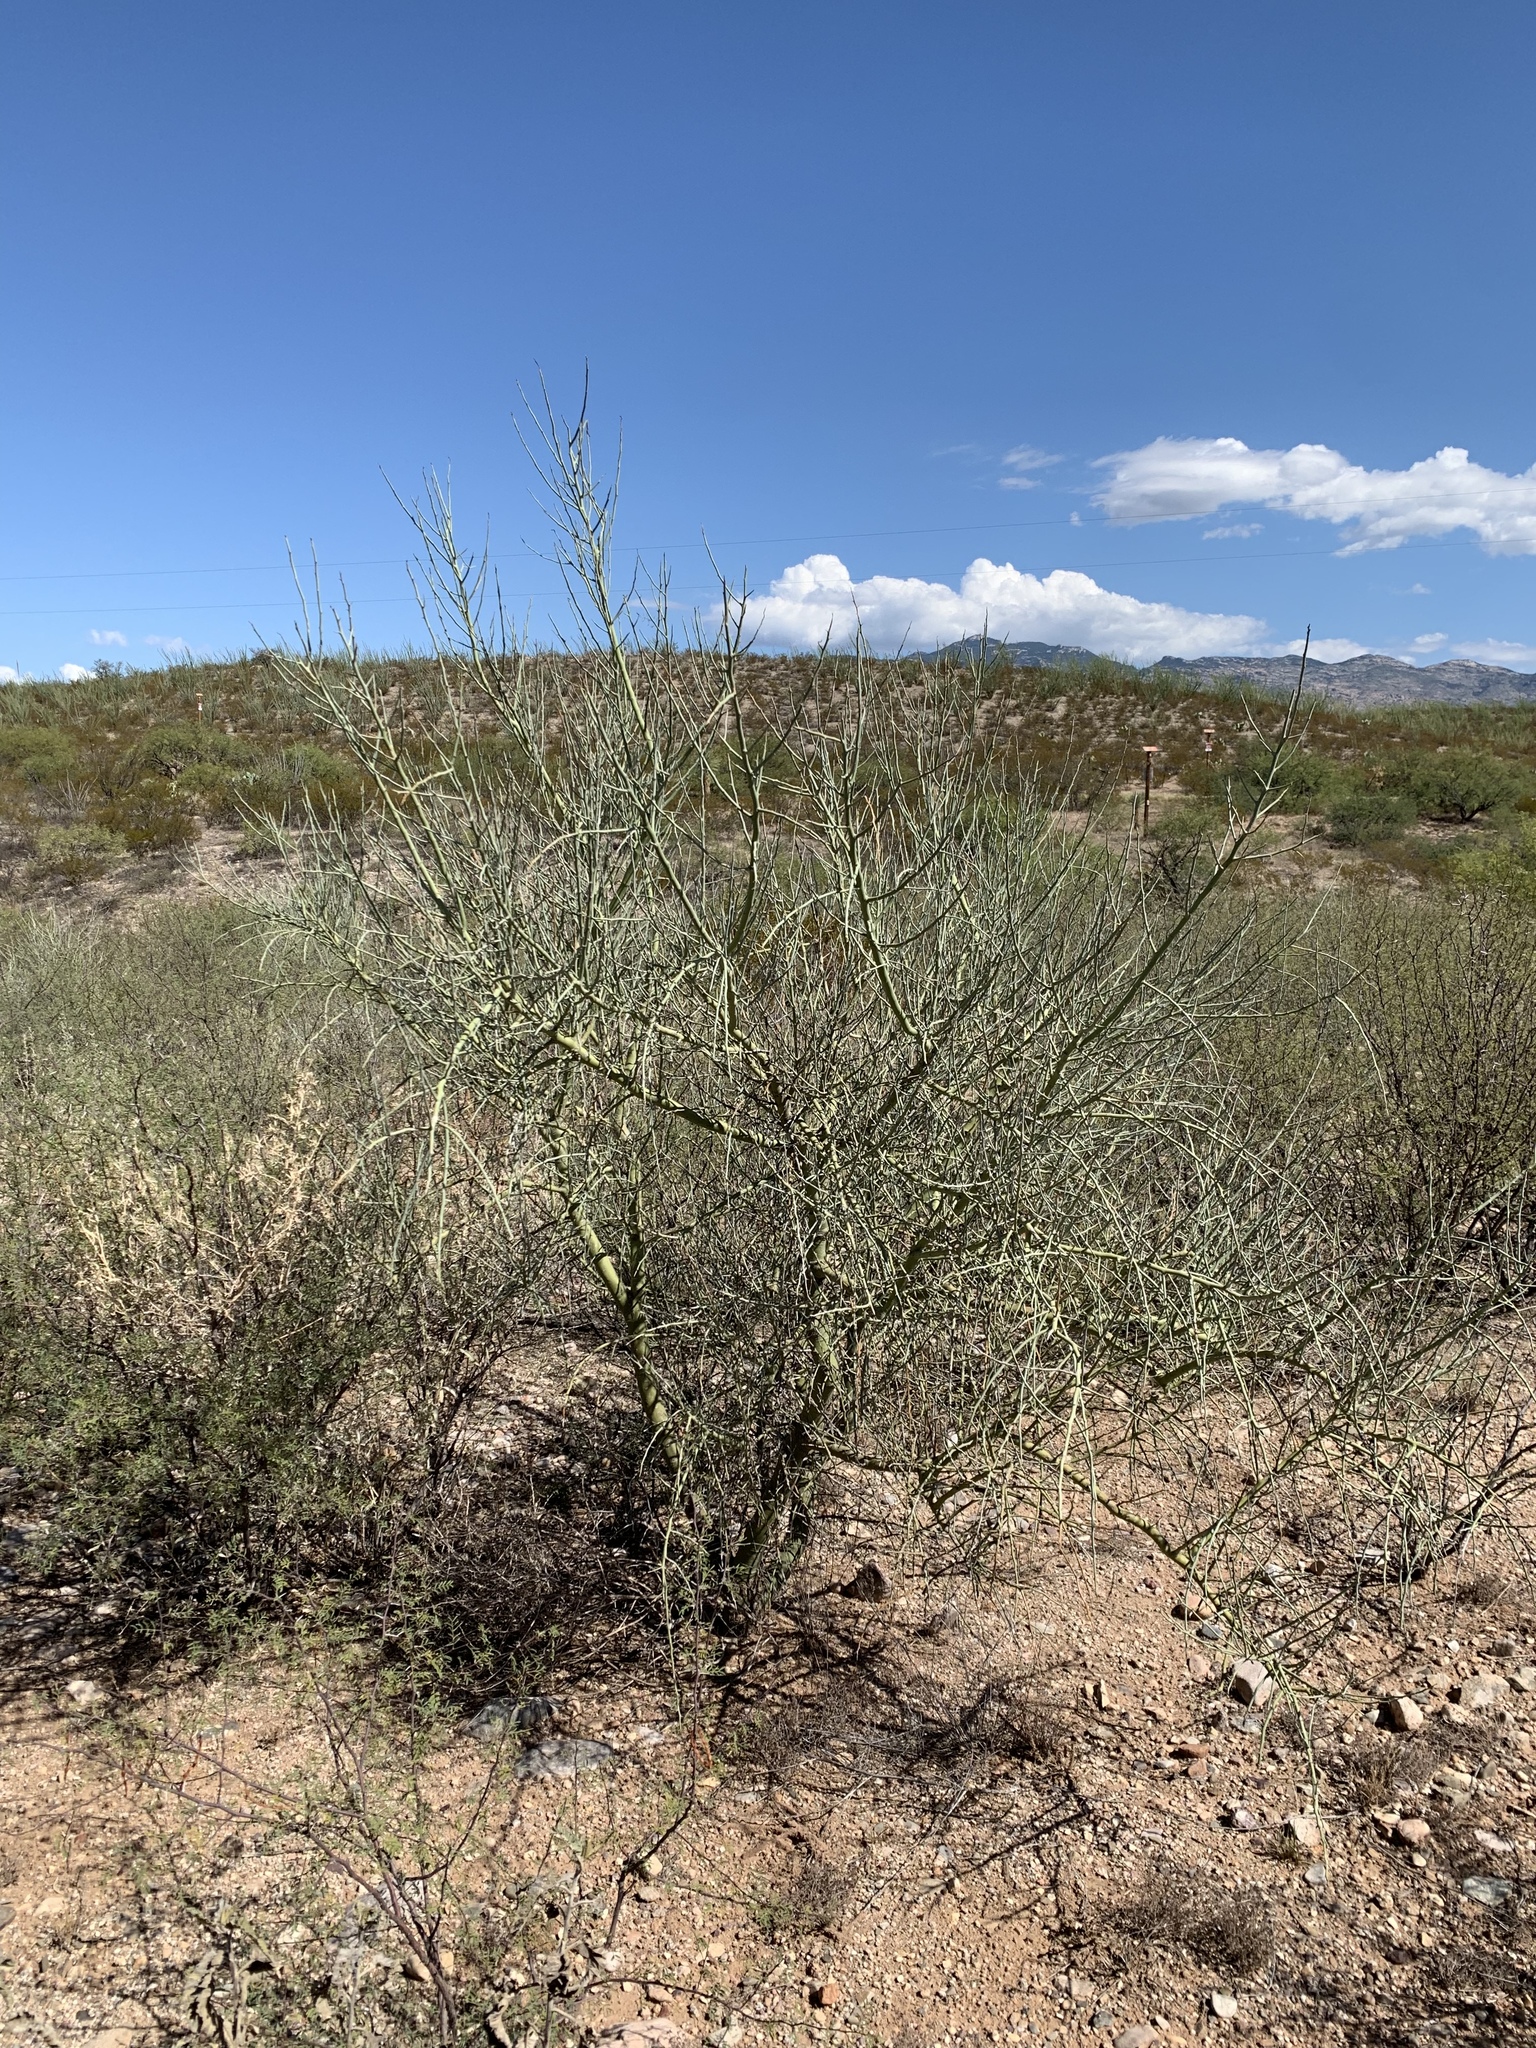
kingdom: Plantae
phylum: Tracheophyta
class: Magnoliopsida
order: Fabales
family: Fabaceae
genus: Parkinsonia
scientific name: Parkinsonia florida
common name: Blue paloverde
